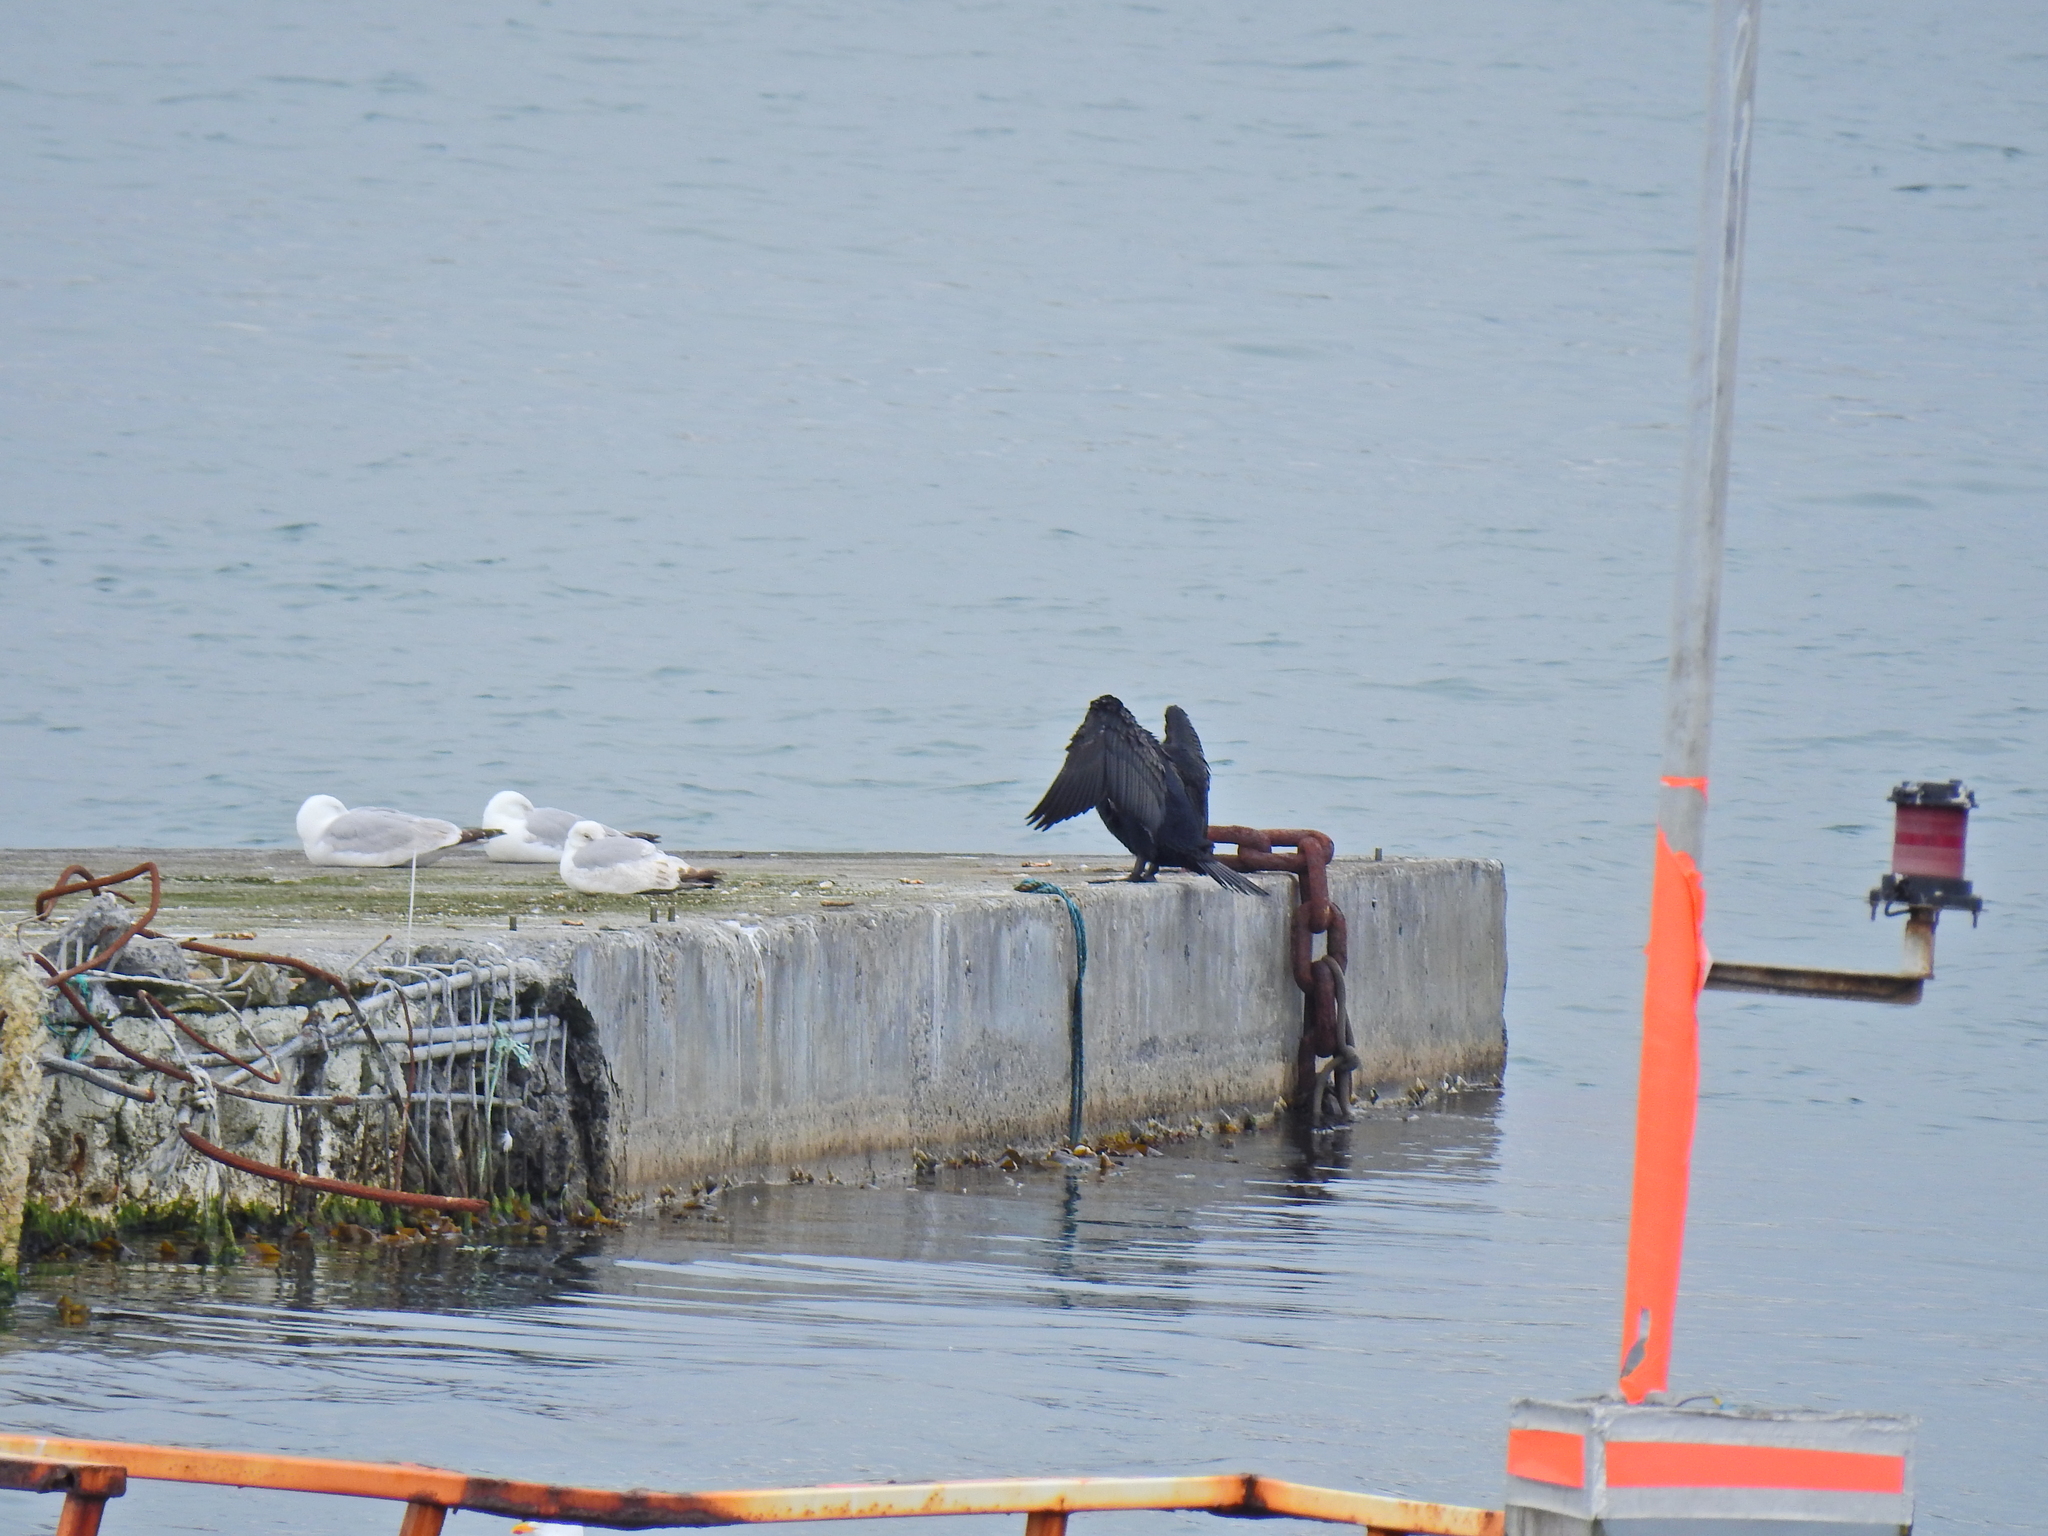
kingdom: Animalia
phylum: Chordata
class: Aves
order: Suliformes
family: Phalacrocoracidae
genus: Phalacrocorax
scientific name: Phalacrocorax carbo
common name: Great cormorant
